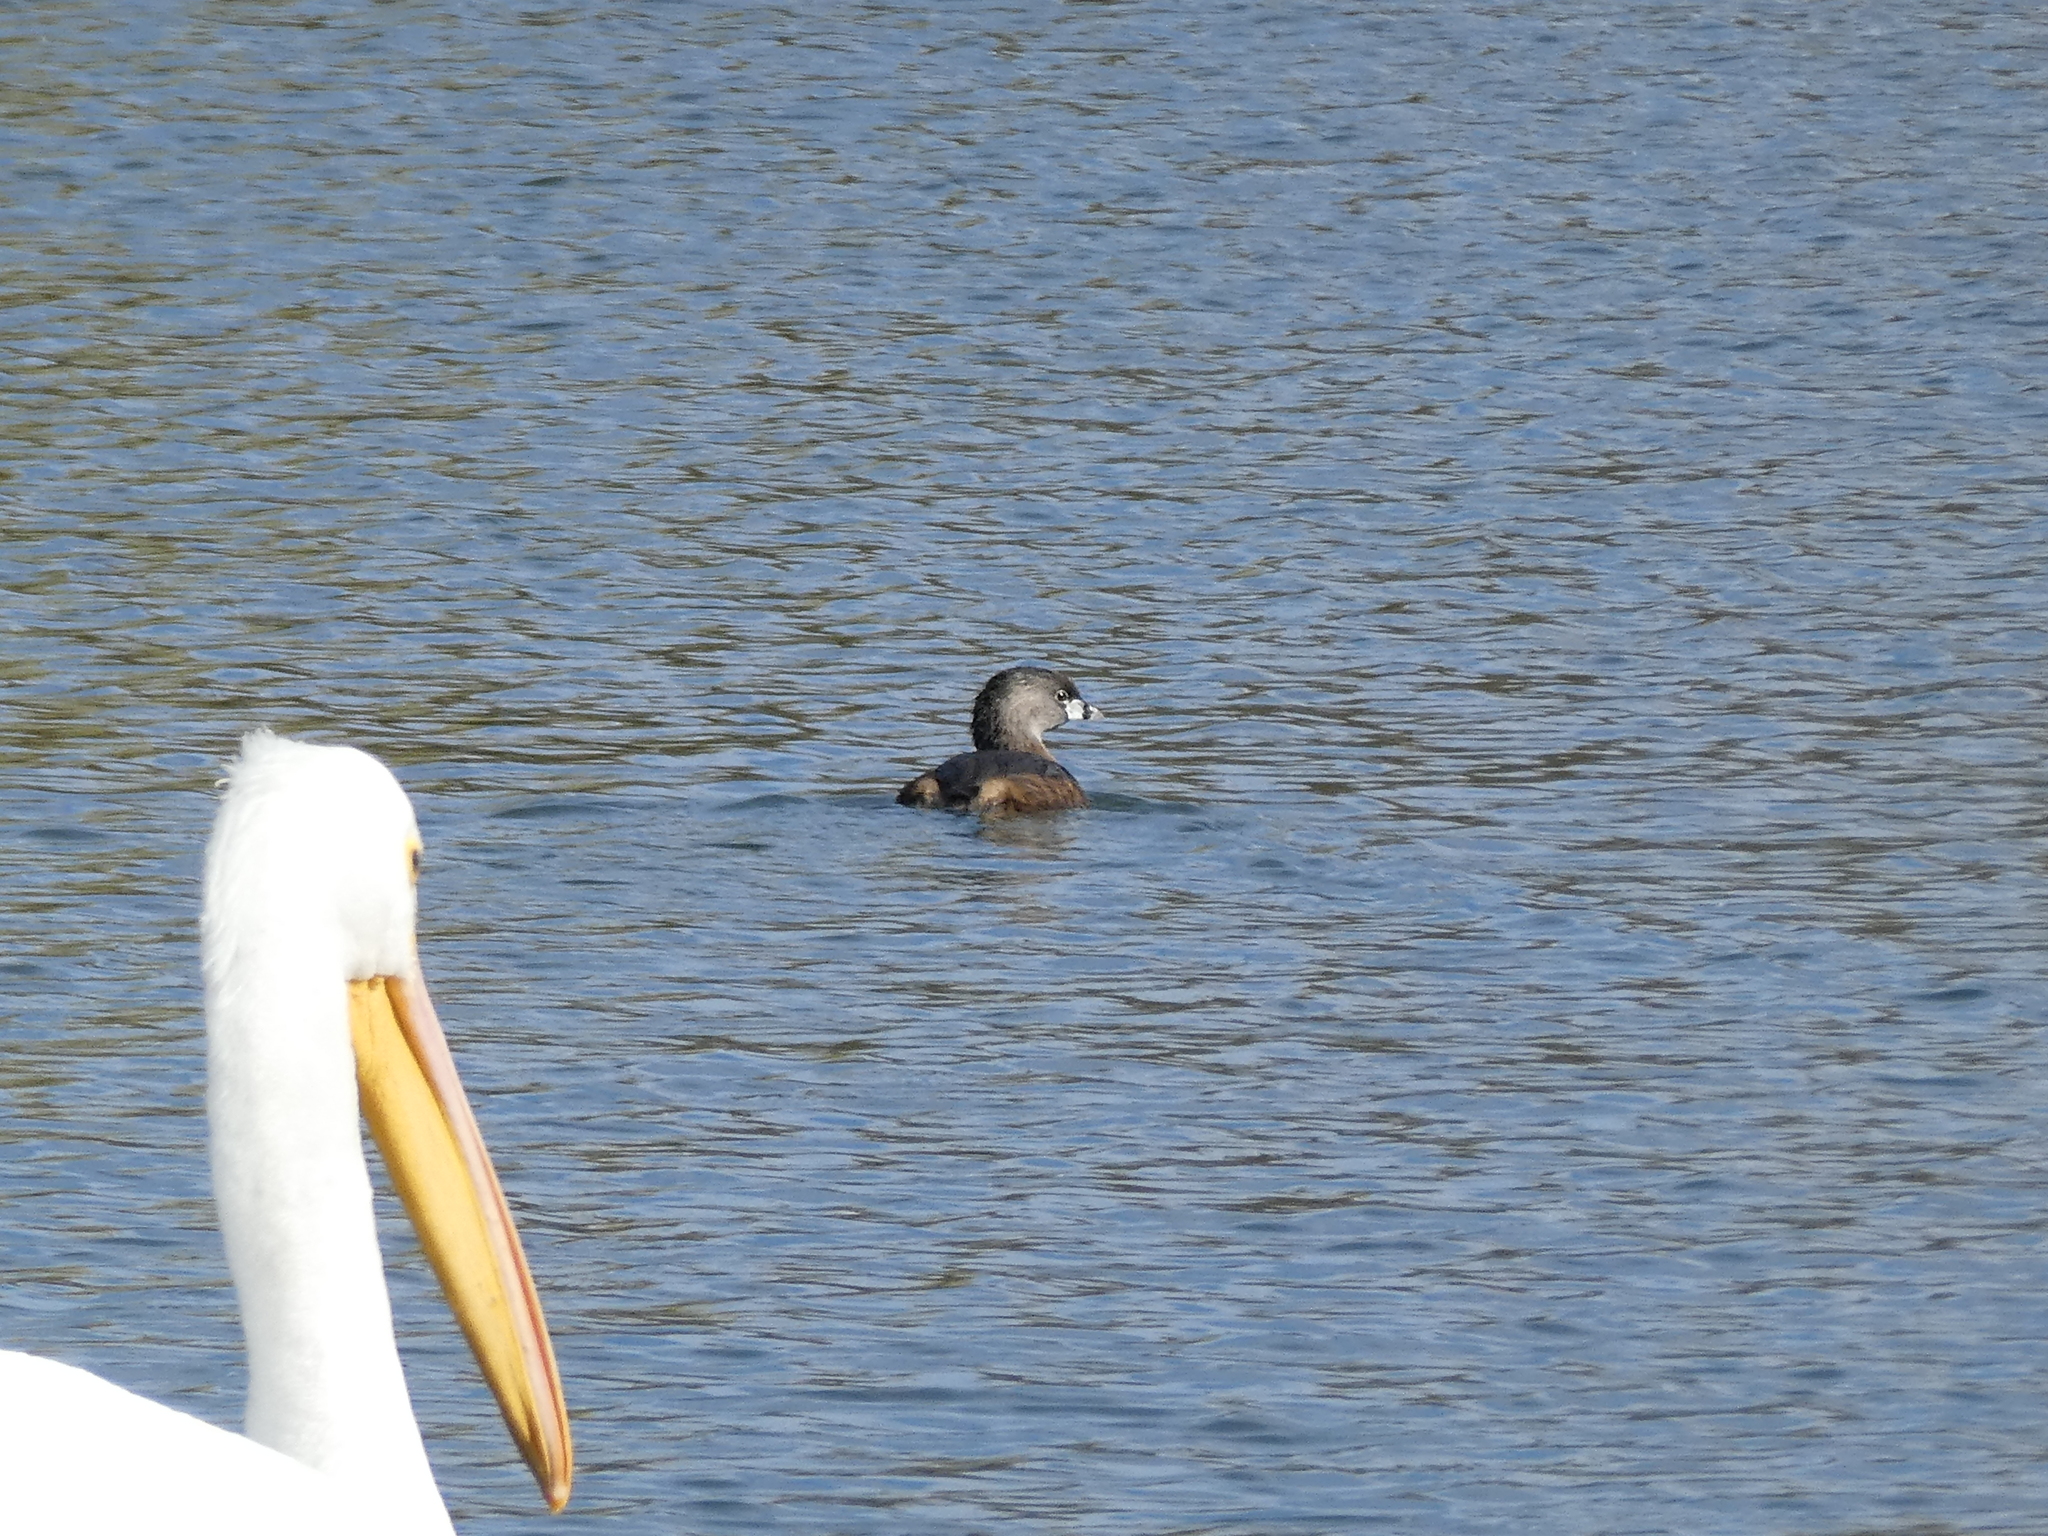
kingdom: Animalia
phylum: Chordata
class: Aves
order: Podicipediformes
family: Podicipedidae
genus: Podilymbus
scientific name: Podilymbus podiceps
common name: Pied-billed grebe
